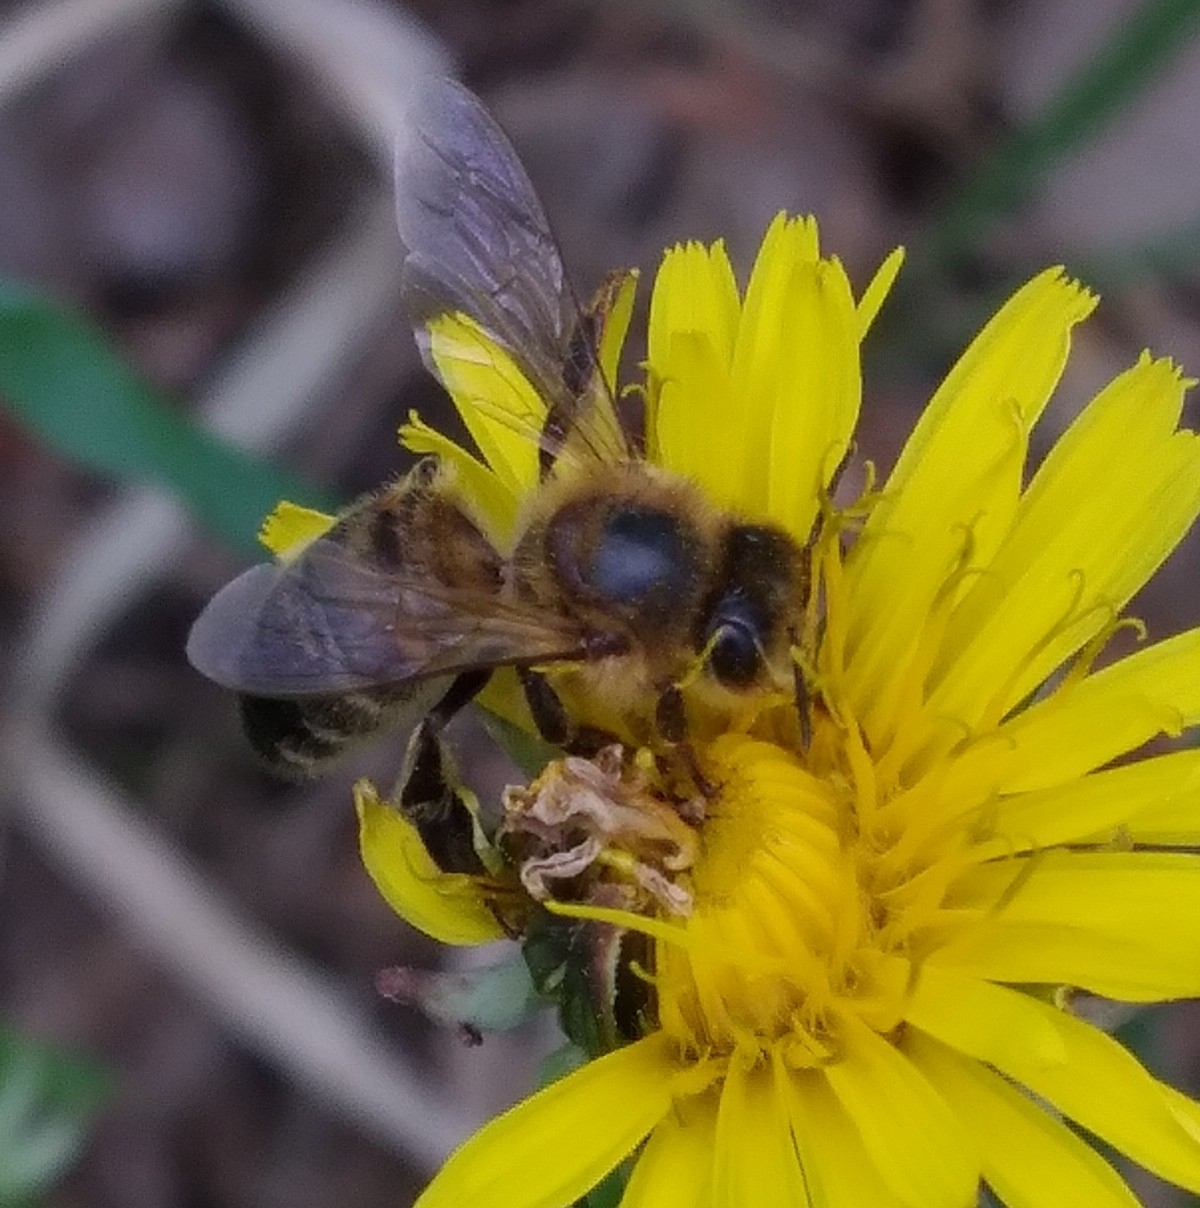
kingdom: Animalia
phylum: Arthropoda
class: Insecta
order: Hymenoptera
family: Apidae
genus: Apis
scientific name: Apis mellifera
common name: Honey bee
